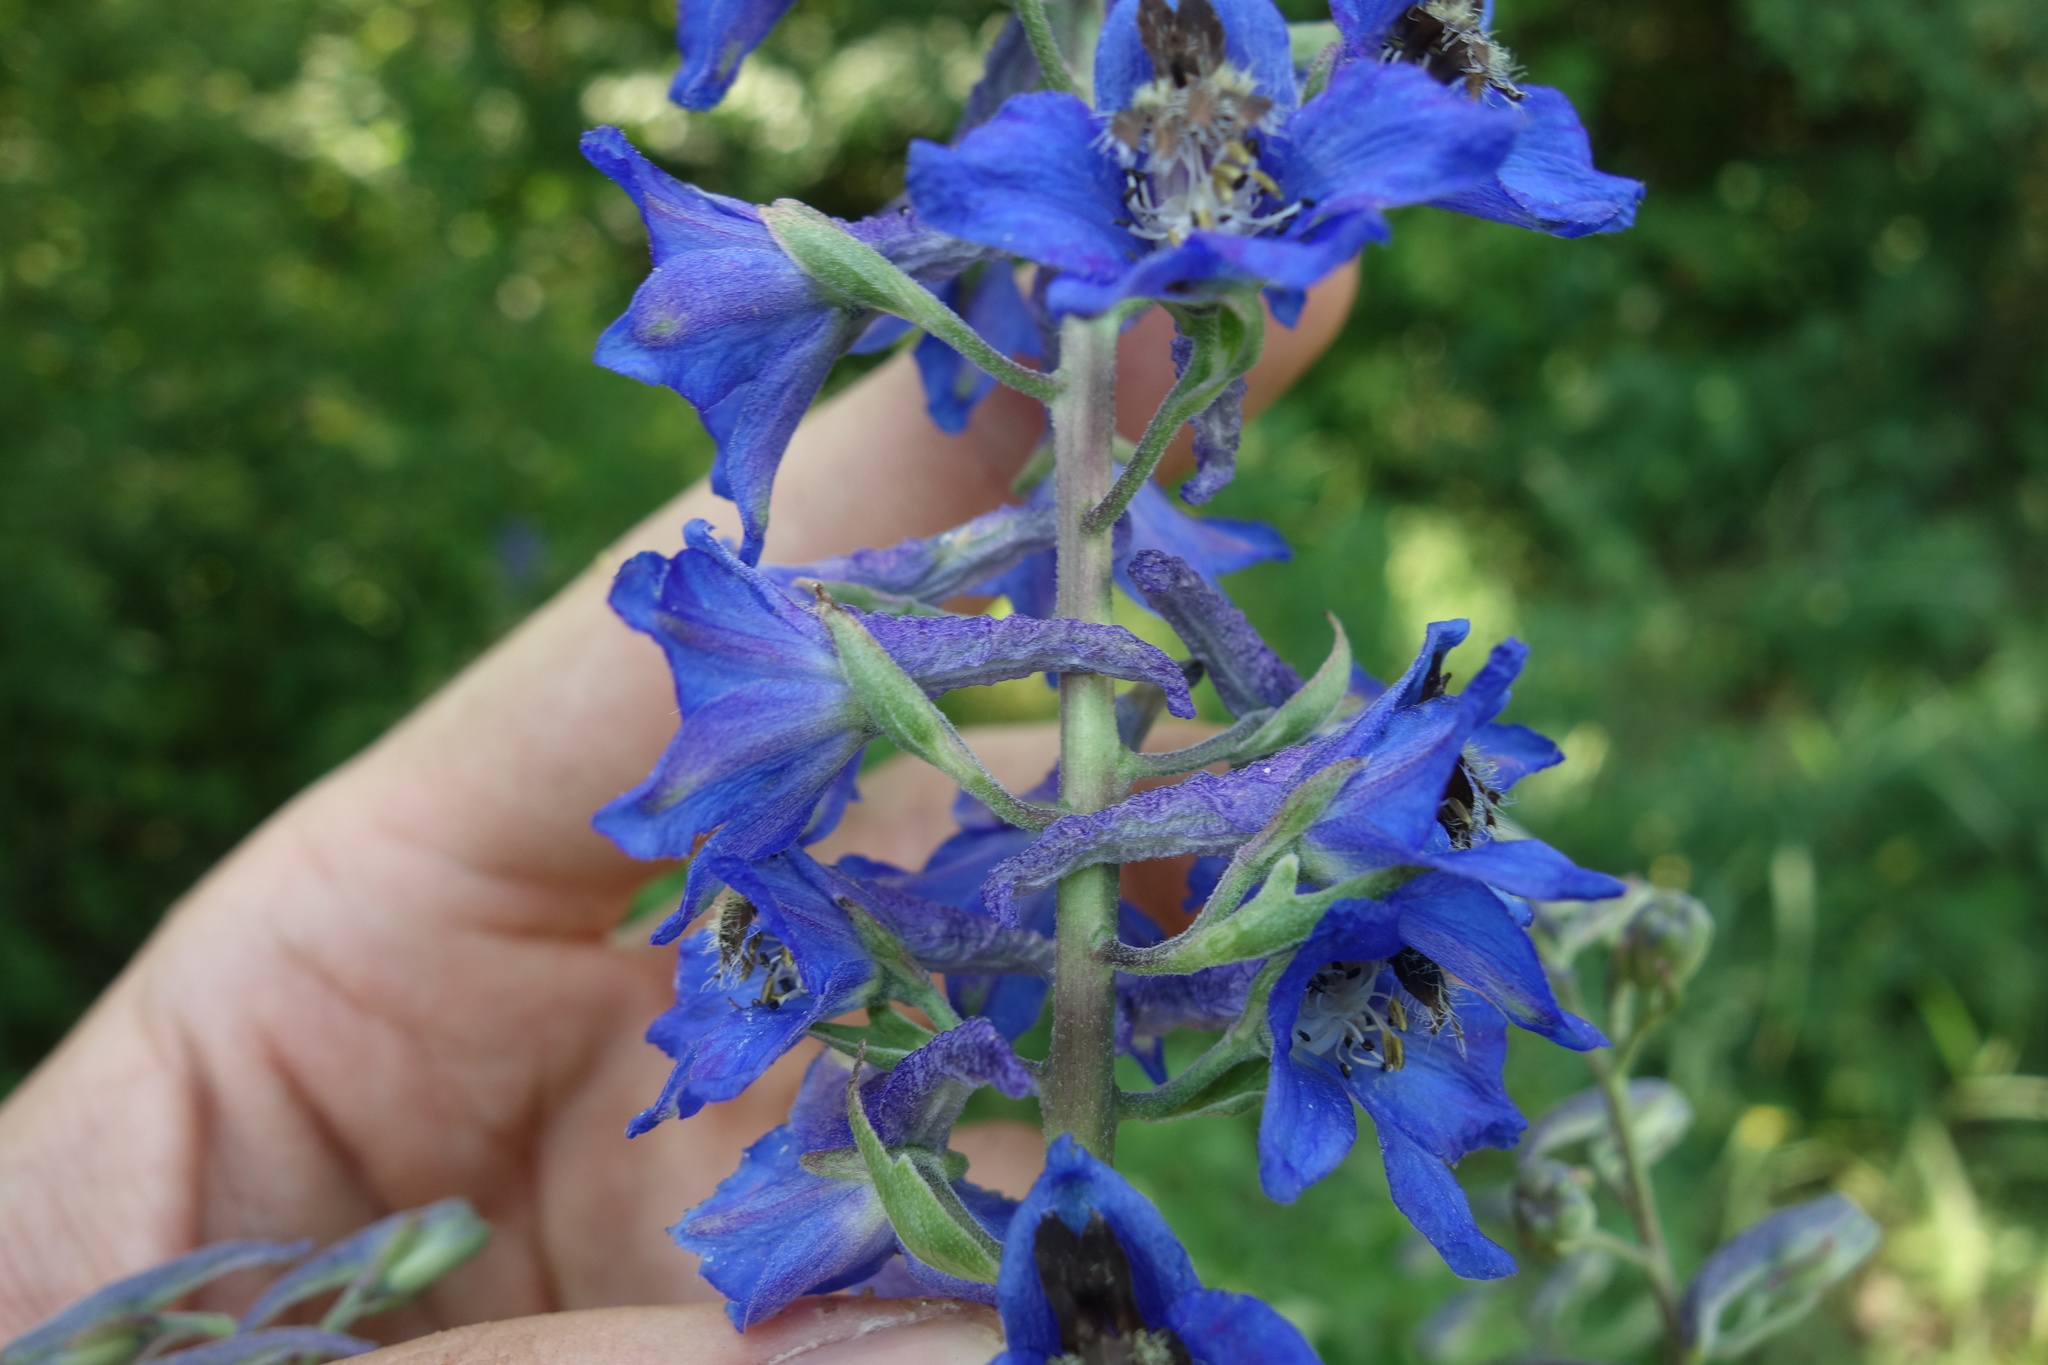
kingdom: Plantae
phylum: Tracheophyta
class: Magnoliopsida
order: Ranunculales
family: Ranunculaceae
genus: Delphinium
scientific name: Delphinium cuneatum
